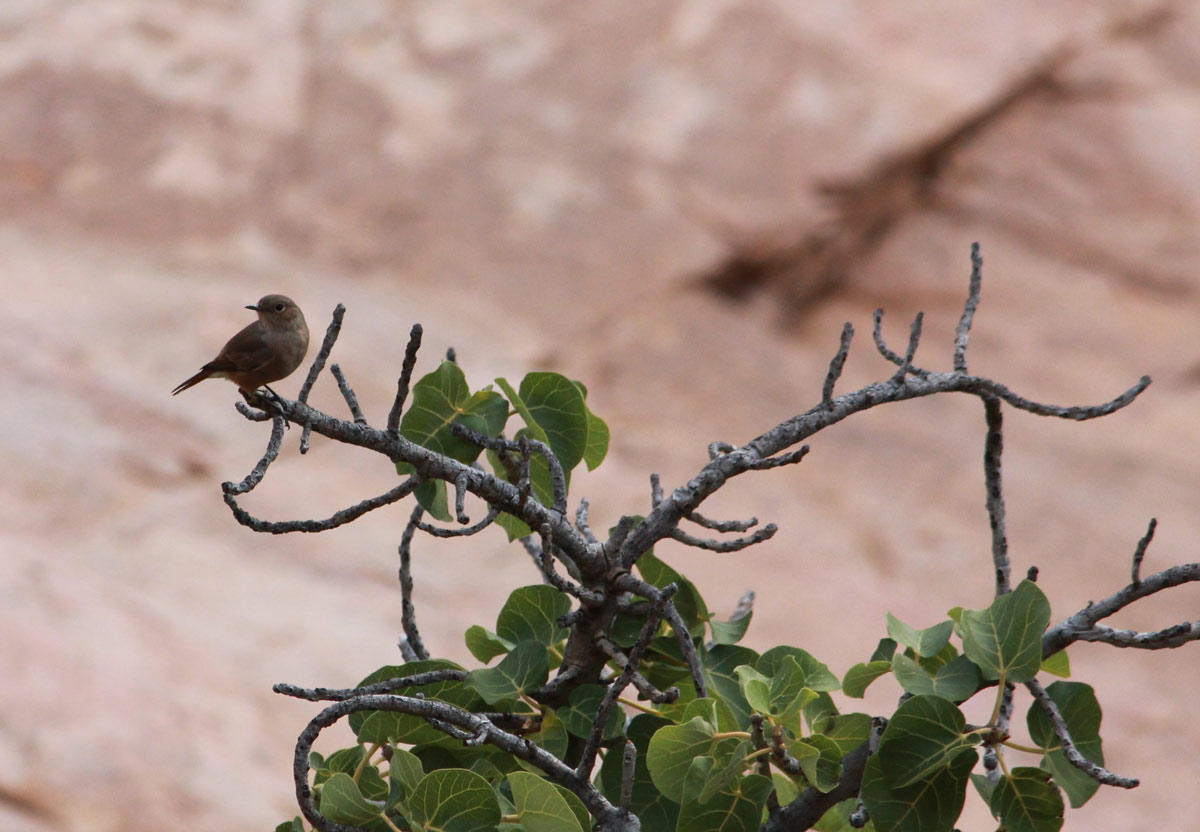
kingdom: Animalia
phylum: Chordata
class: Aves
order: Passeriformes
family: Muscicapidae
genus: Oenanthe
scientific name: Oenanthe familiaris
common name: Familiar chat
